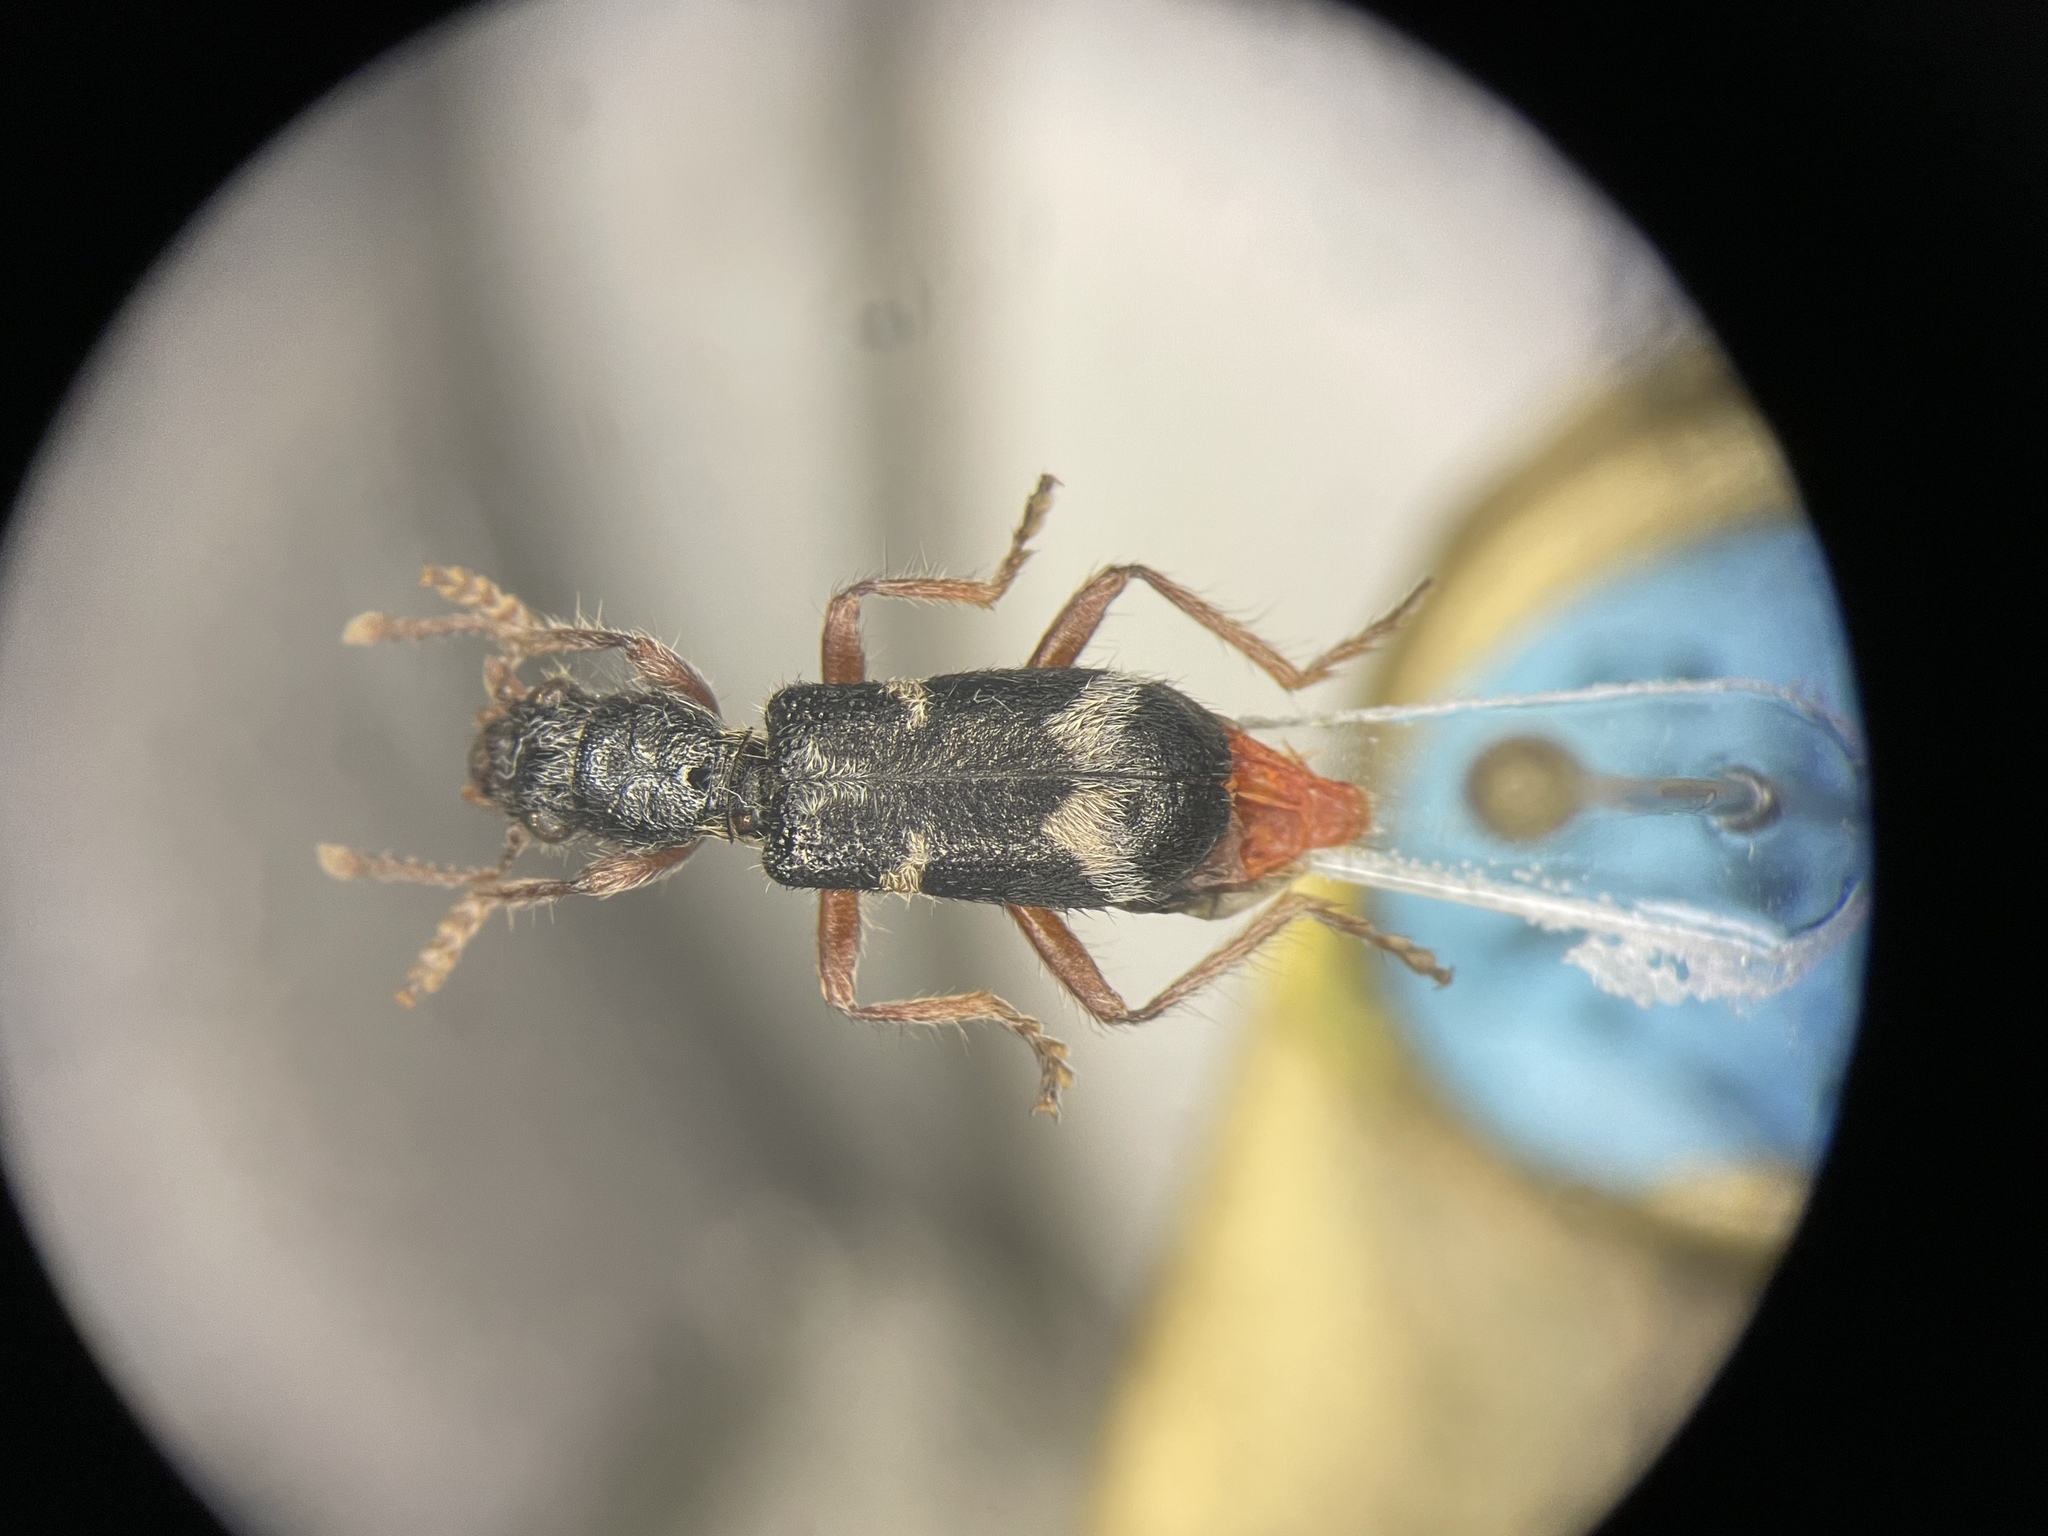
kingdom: Animalia
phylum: Arthropoda
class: Insecta
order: Coleoptera
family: Cleridae
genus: Thanasimus
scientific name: Thanasimus undatulus
